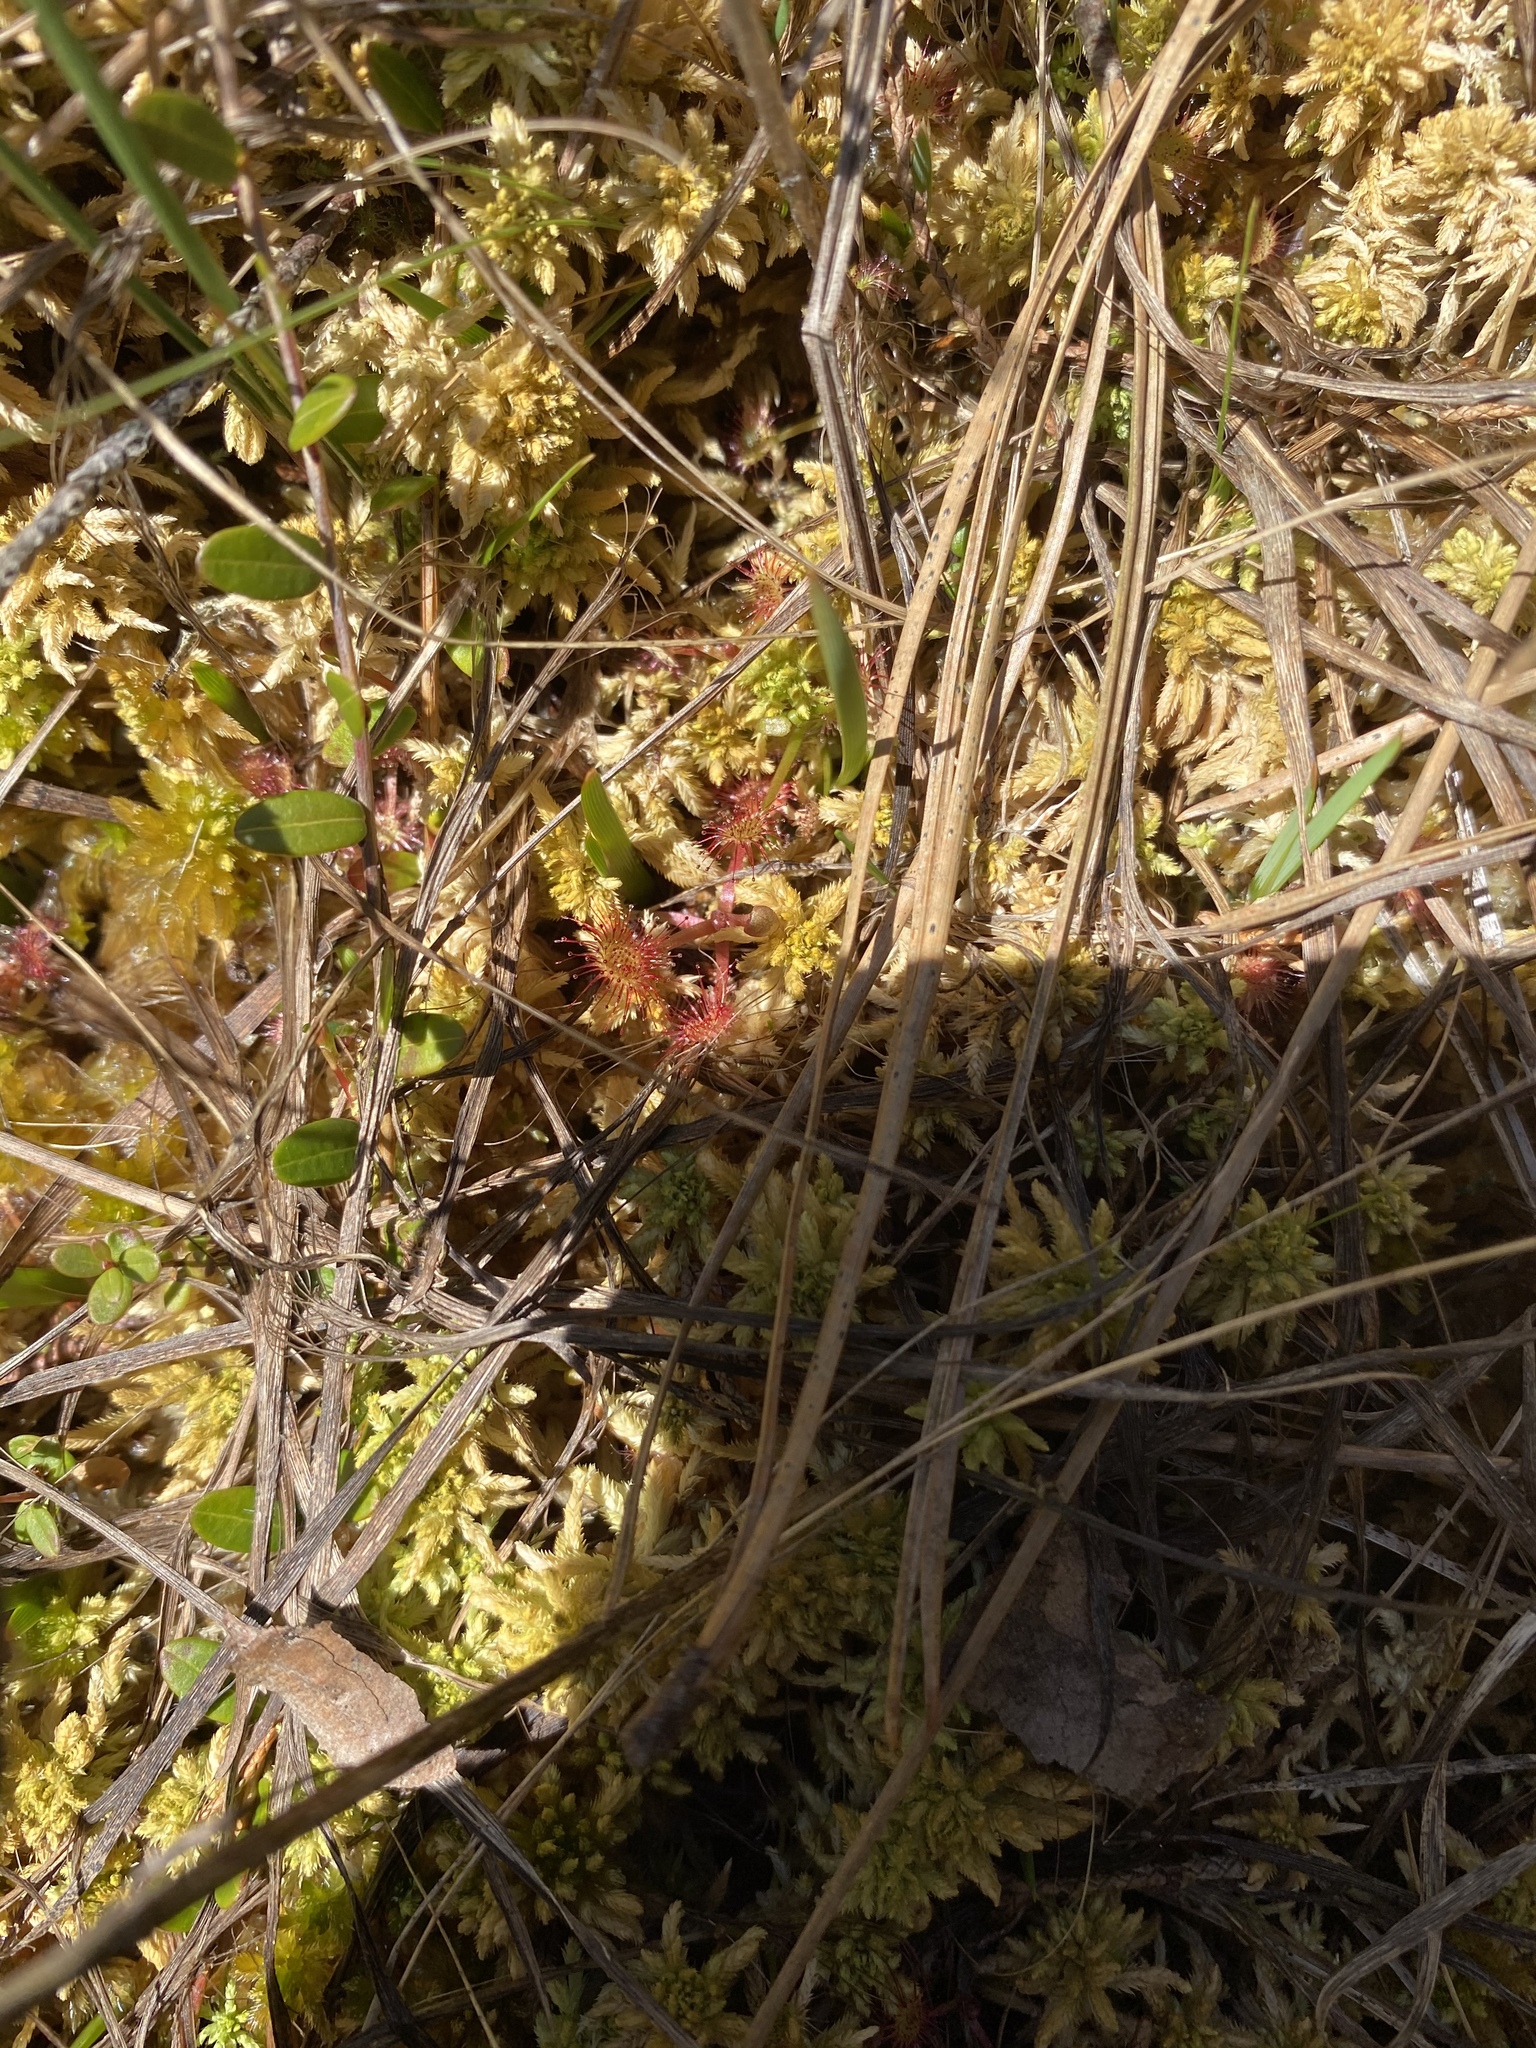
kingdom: Plantae
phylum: Tracheophyta
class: Magnoliopsida
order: Caryophyllales
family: Droseraceae
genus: Drosera
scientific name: Drosera rotundifolia
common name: Round-leaved sundew
